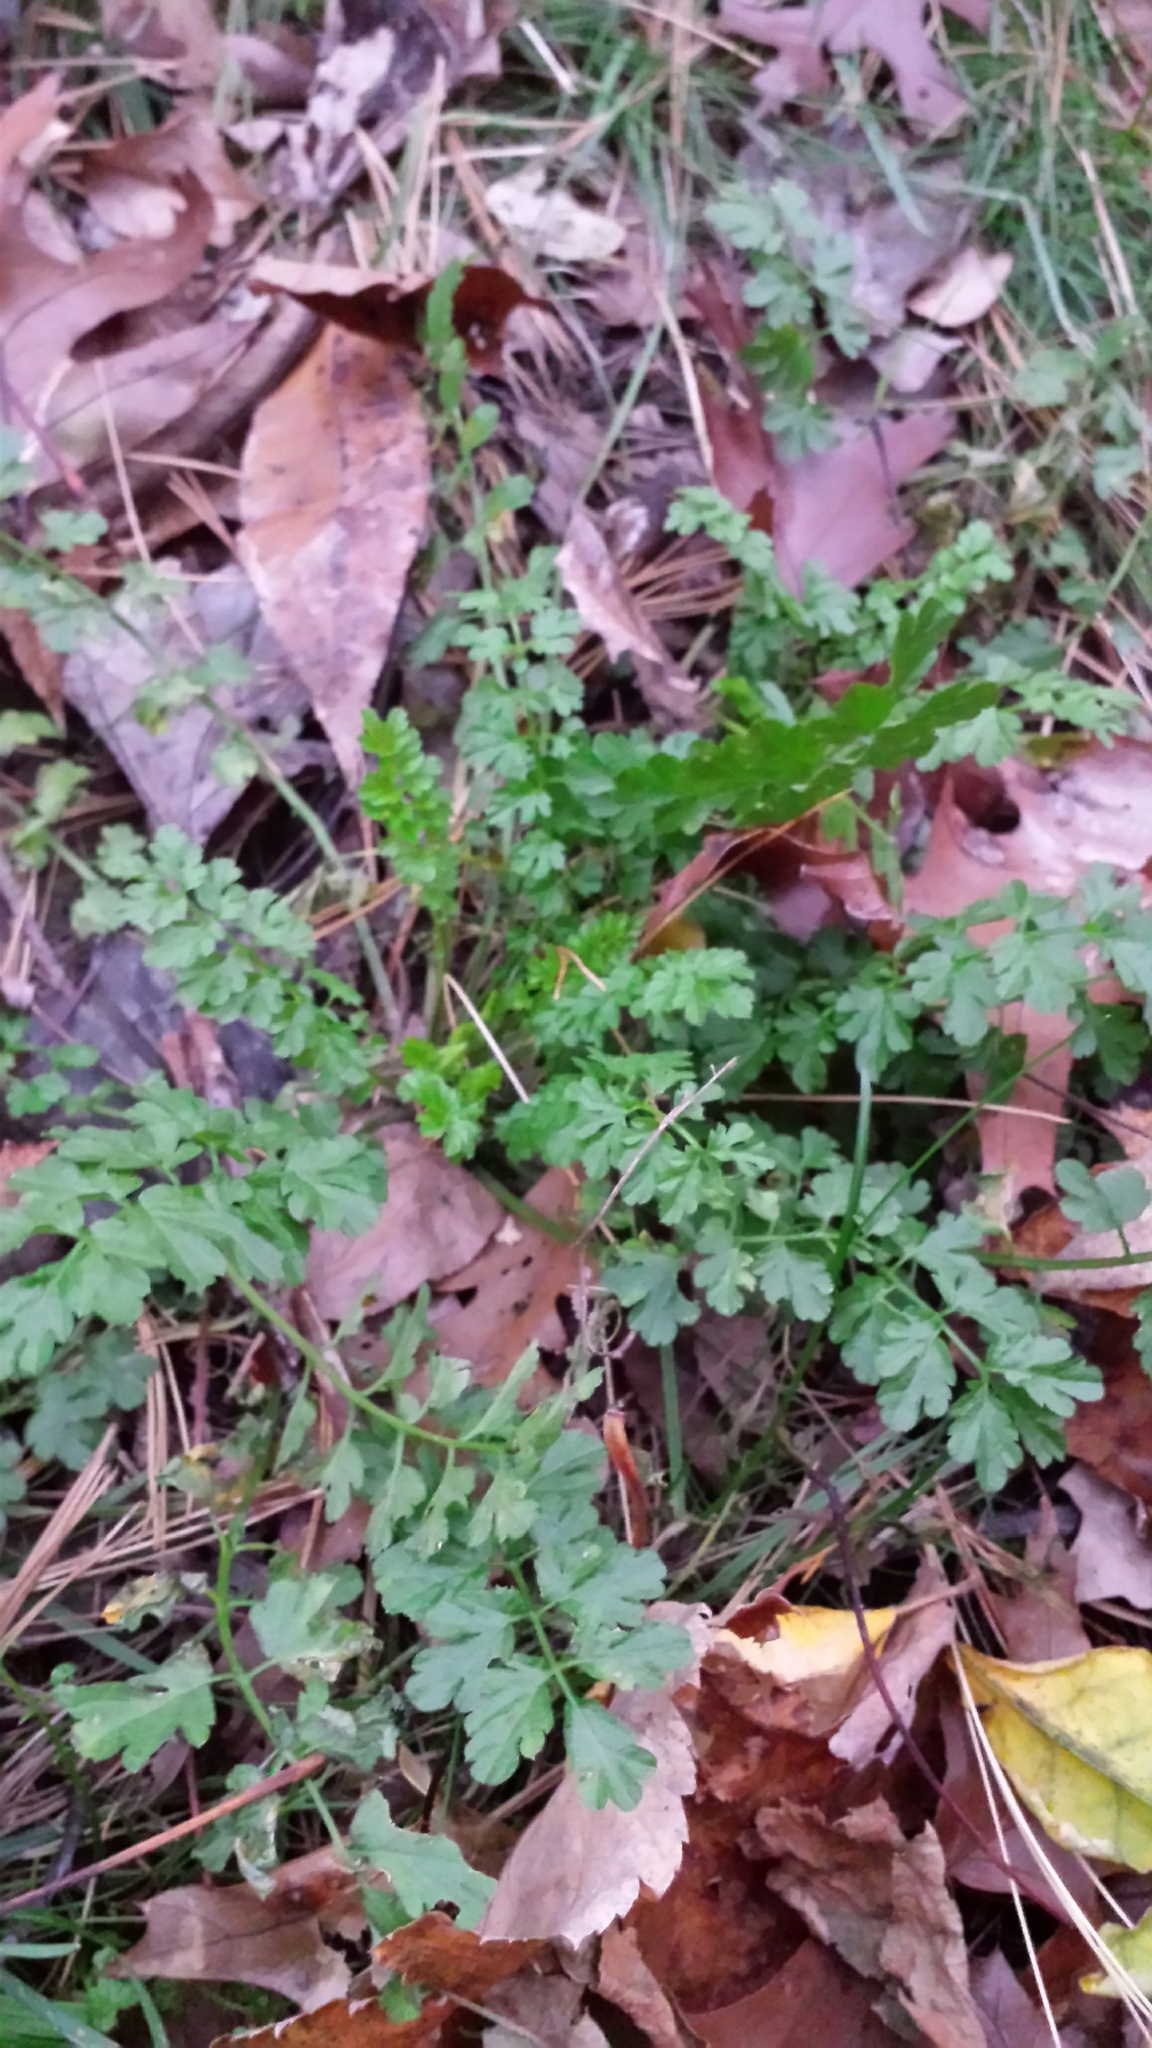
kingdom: Plantae
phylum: Tracheophyta
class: Magnoliopsida
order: Brassicales
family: Brassicaceae
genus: Cardamine
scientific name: Cardamine impatiens
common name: Narrow-leaved bitter-cress
